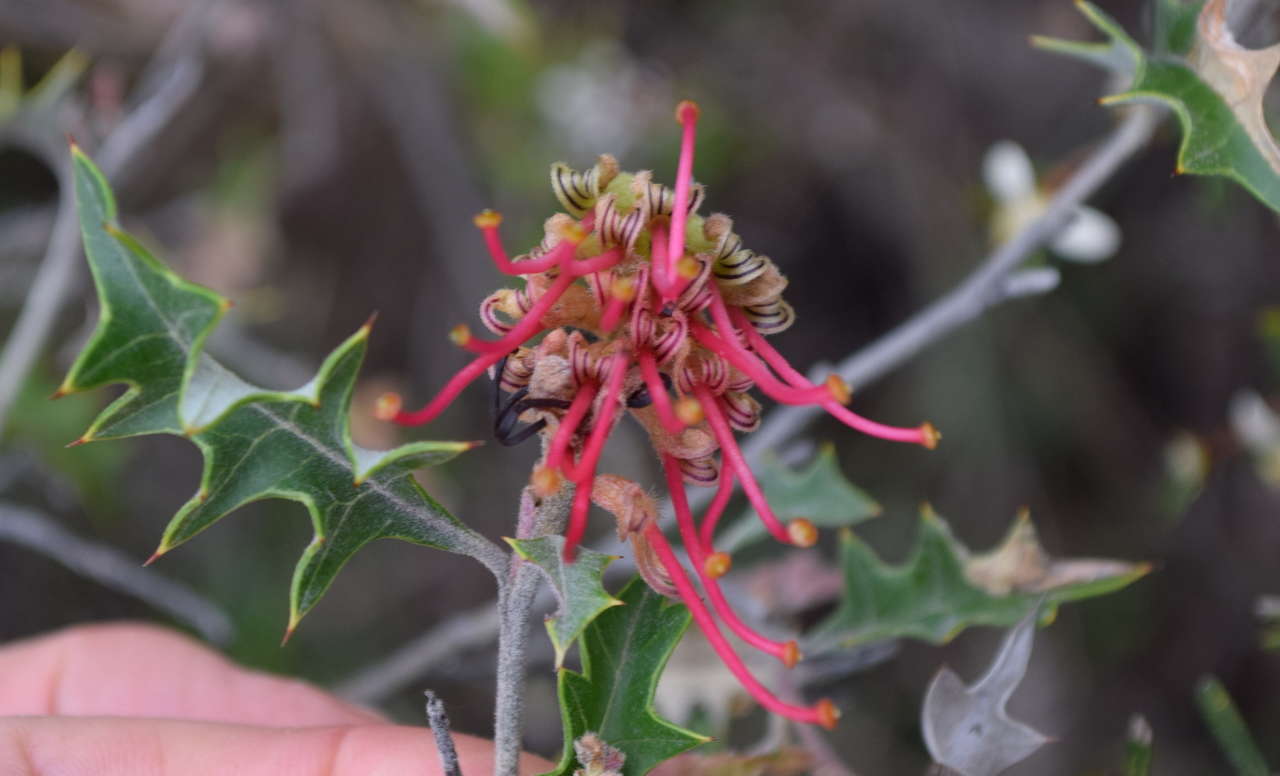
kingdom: Plantae
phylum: Tracheophyta
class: Magnoliopsida
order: Proteales
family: Proteaceae
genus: Grevillea
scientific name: Grevillea aquifolium
